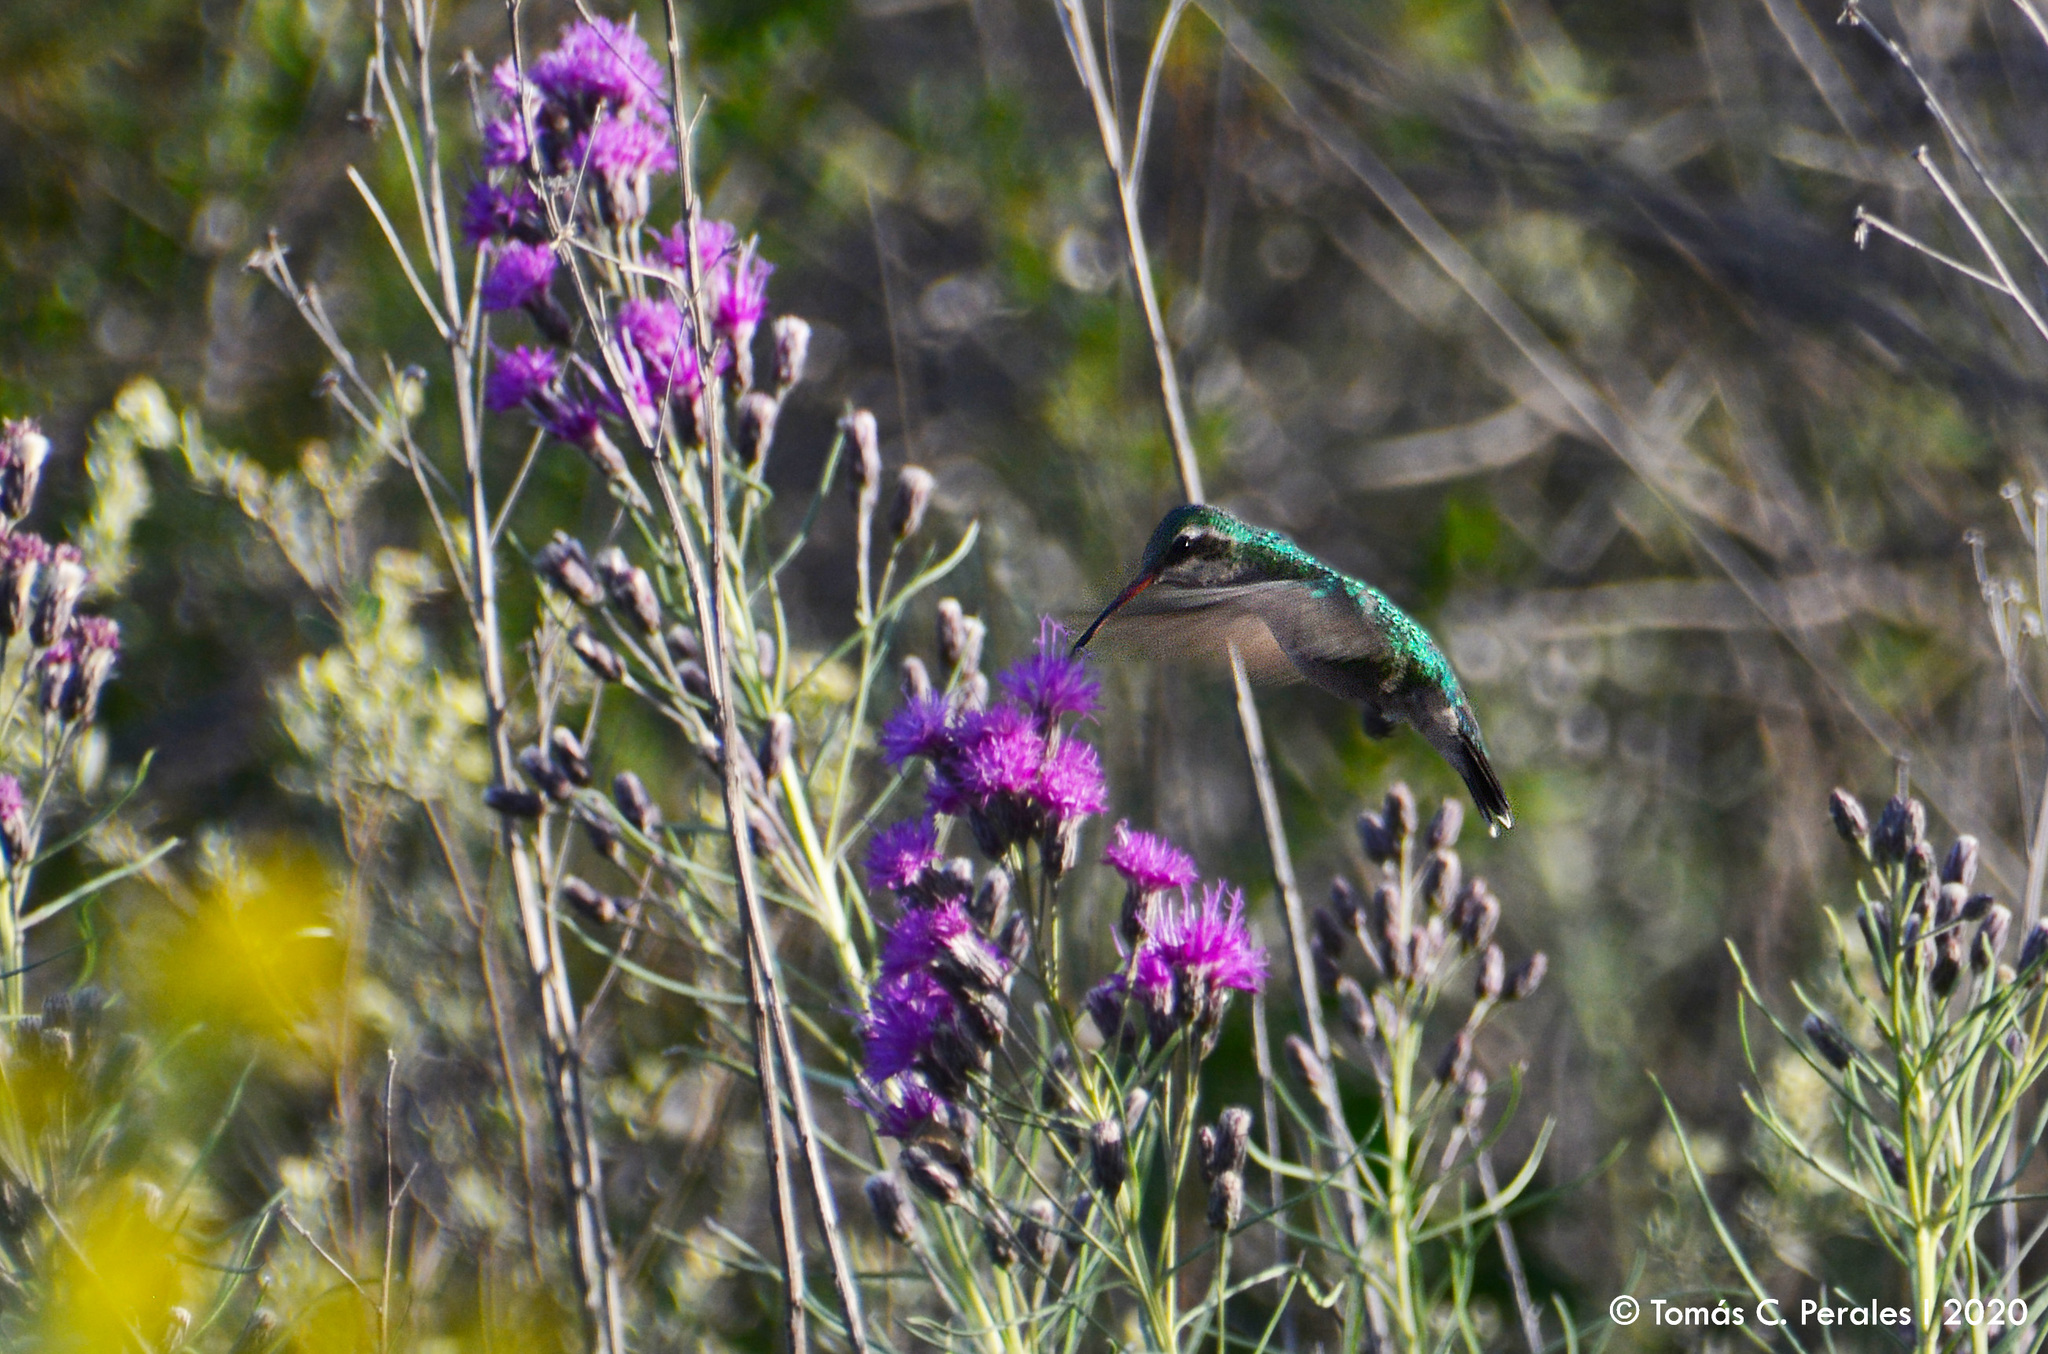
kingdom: Animalia
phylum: Chordata
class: Aves
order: Apodiformes
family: Trochilidae
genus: Chlorostilbon
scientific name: Chlorostilbon lucidus
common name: Glittering-bellied emerald
